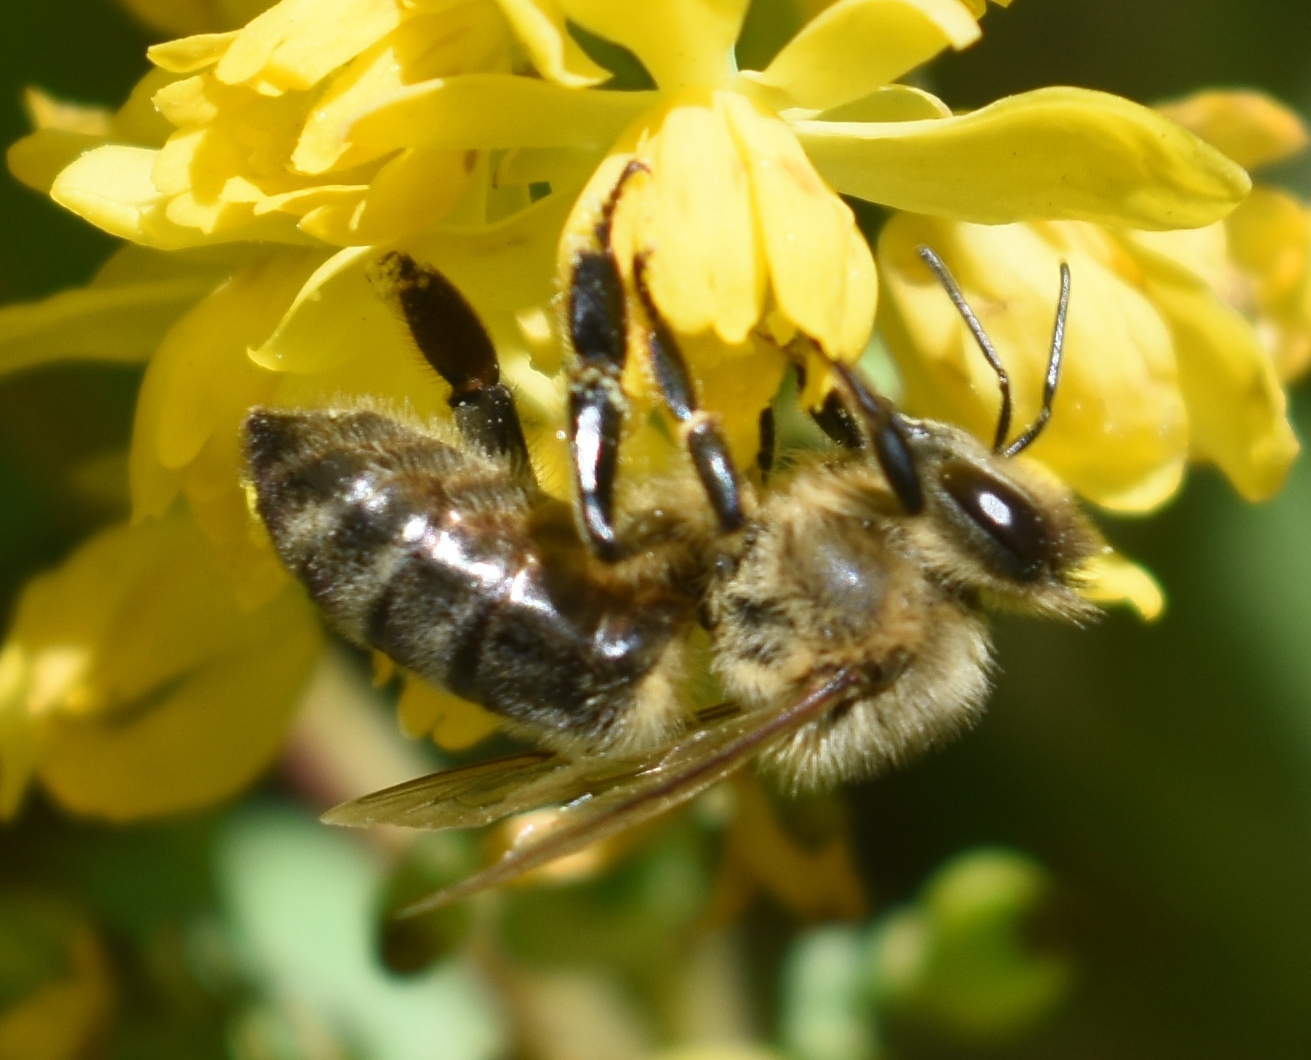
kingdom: Animalia
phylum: Arthropoda
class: Insecta
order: Hymenoptera
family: Apidae
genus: Apis
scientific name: Apis mellifera
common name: Honey bee
